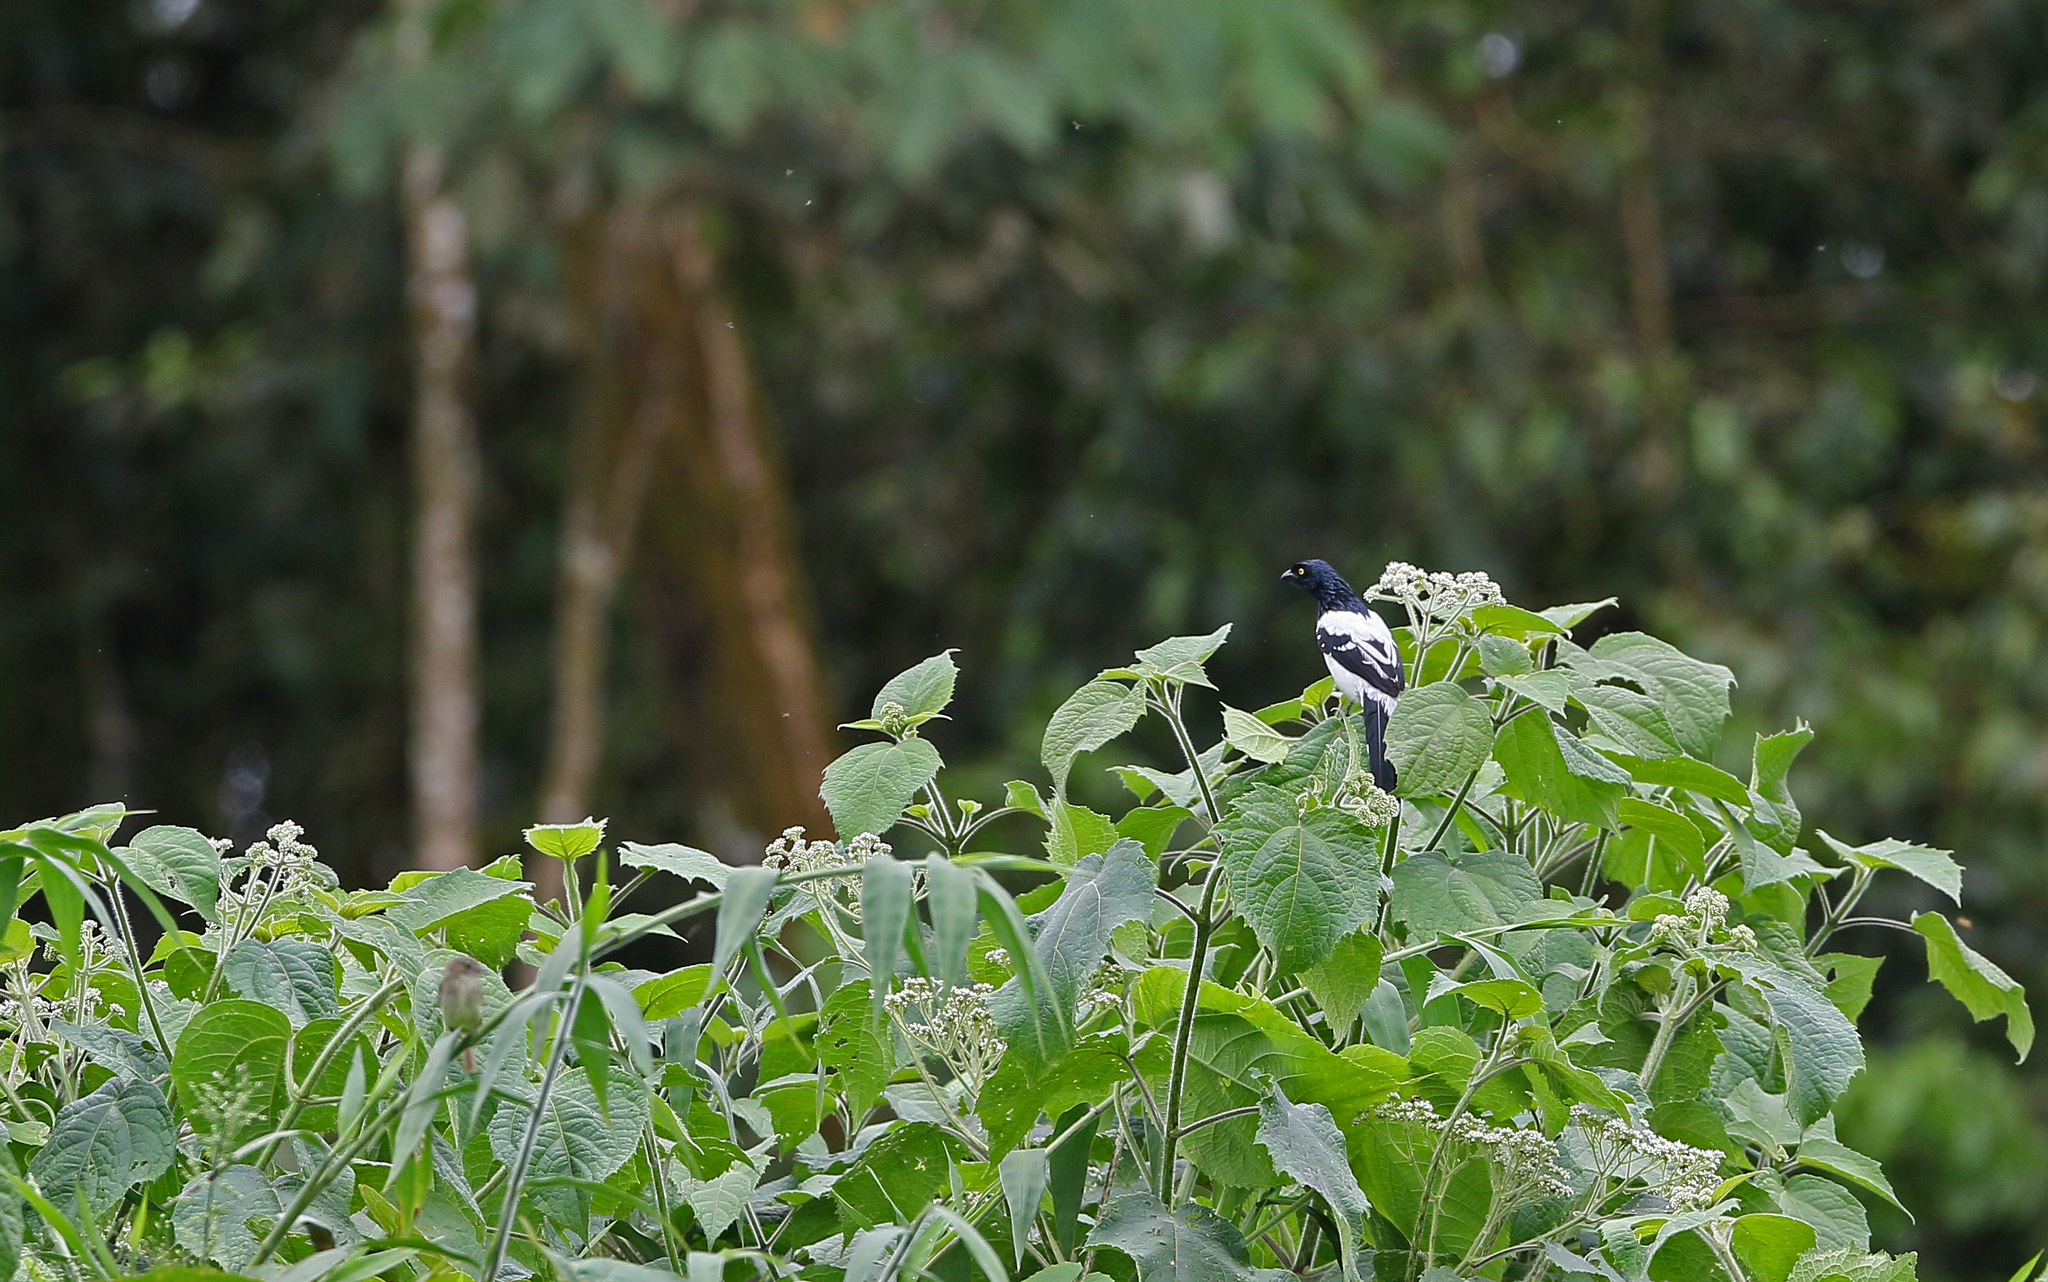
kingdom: Animalia
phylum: Chordata
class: Aves
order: Passeriformes
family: Thraupidae
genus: Cissopis
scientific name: Cissopis leverianus
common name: Magpie tanager
